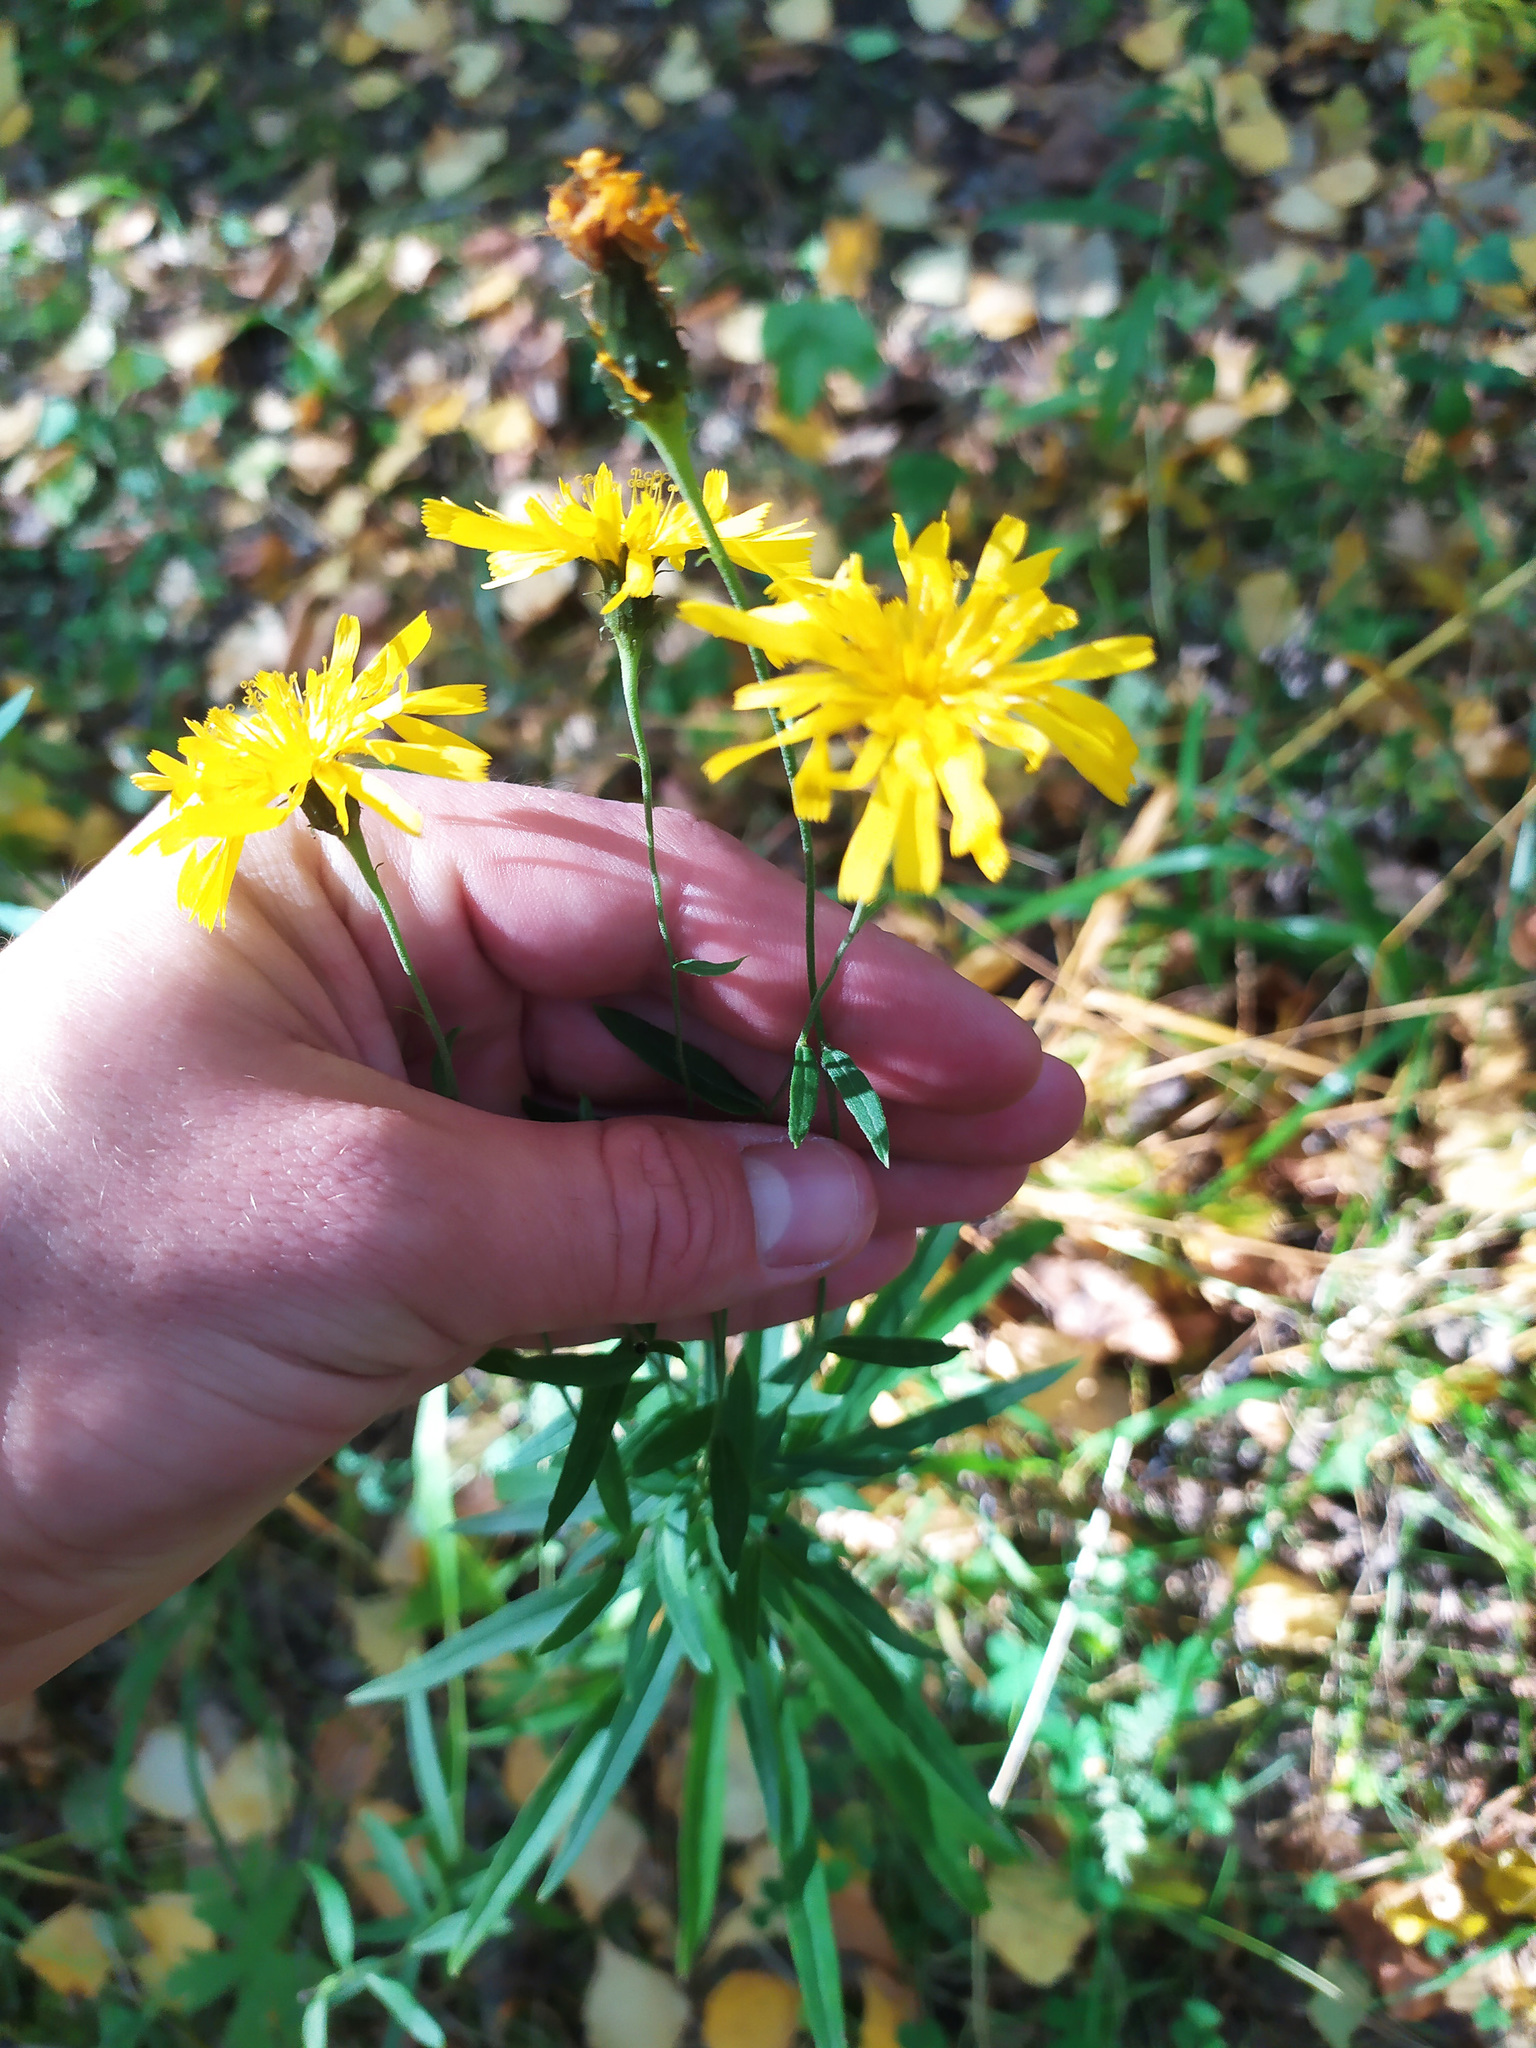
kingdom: Plantae
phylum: Tracheophyta
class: Magnoliopsida
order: Asterales
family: Asteraceae
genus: Hieracium
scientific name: Hieracium umbellatum
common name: Northern hawkweed
